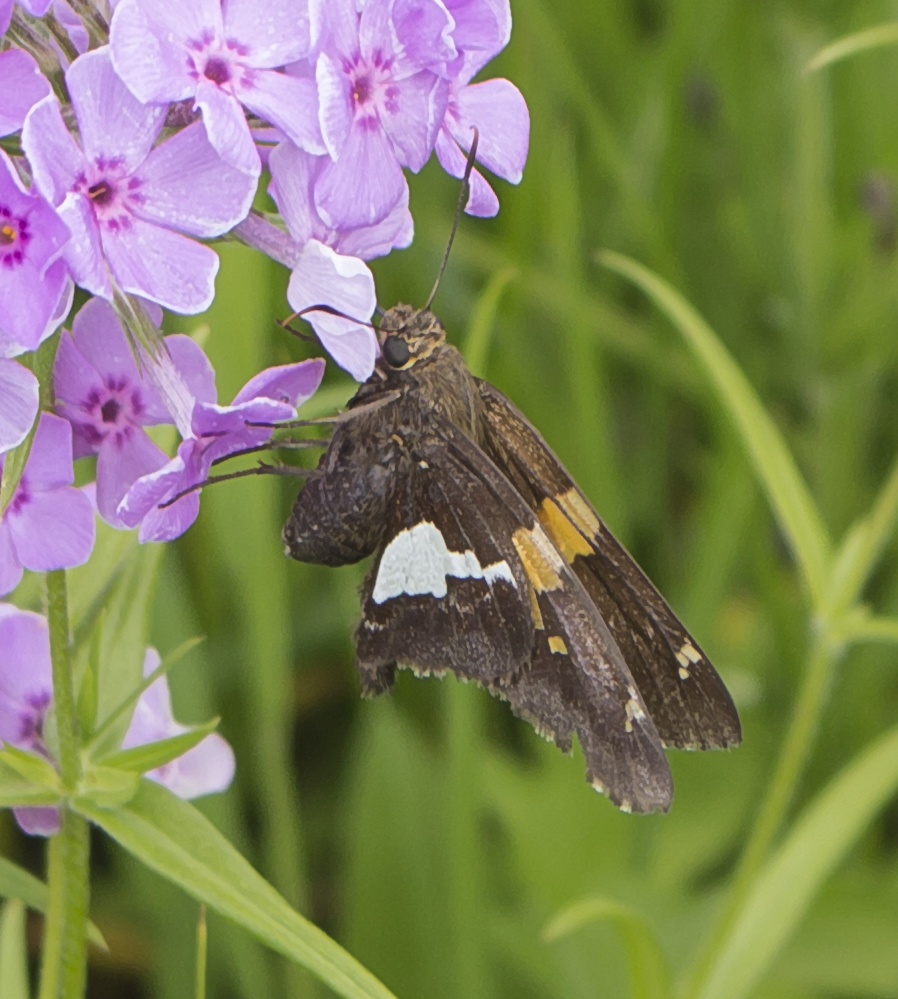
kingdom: Animalia
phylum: Arthropoda
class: Insecta
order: Lepidoptera
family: Hesperiidae
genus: Epargyreus
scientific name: Epargyreus clarus
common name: Silver-spotted skipper
